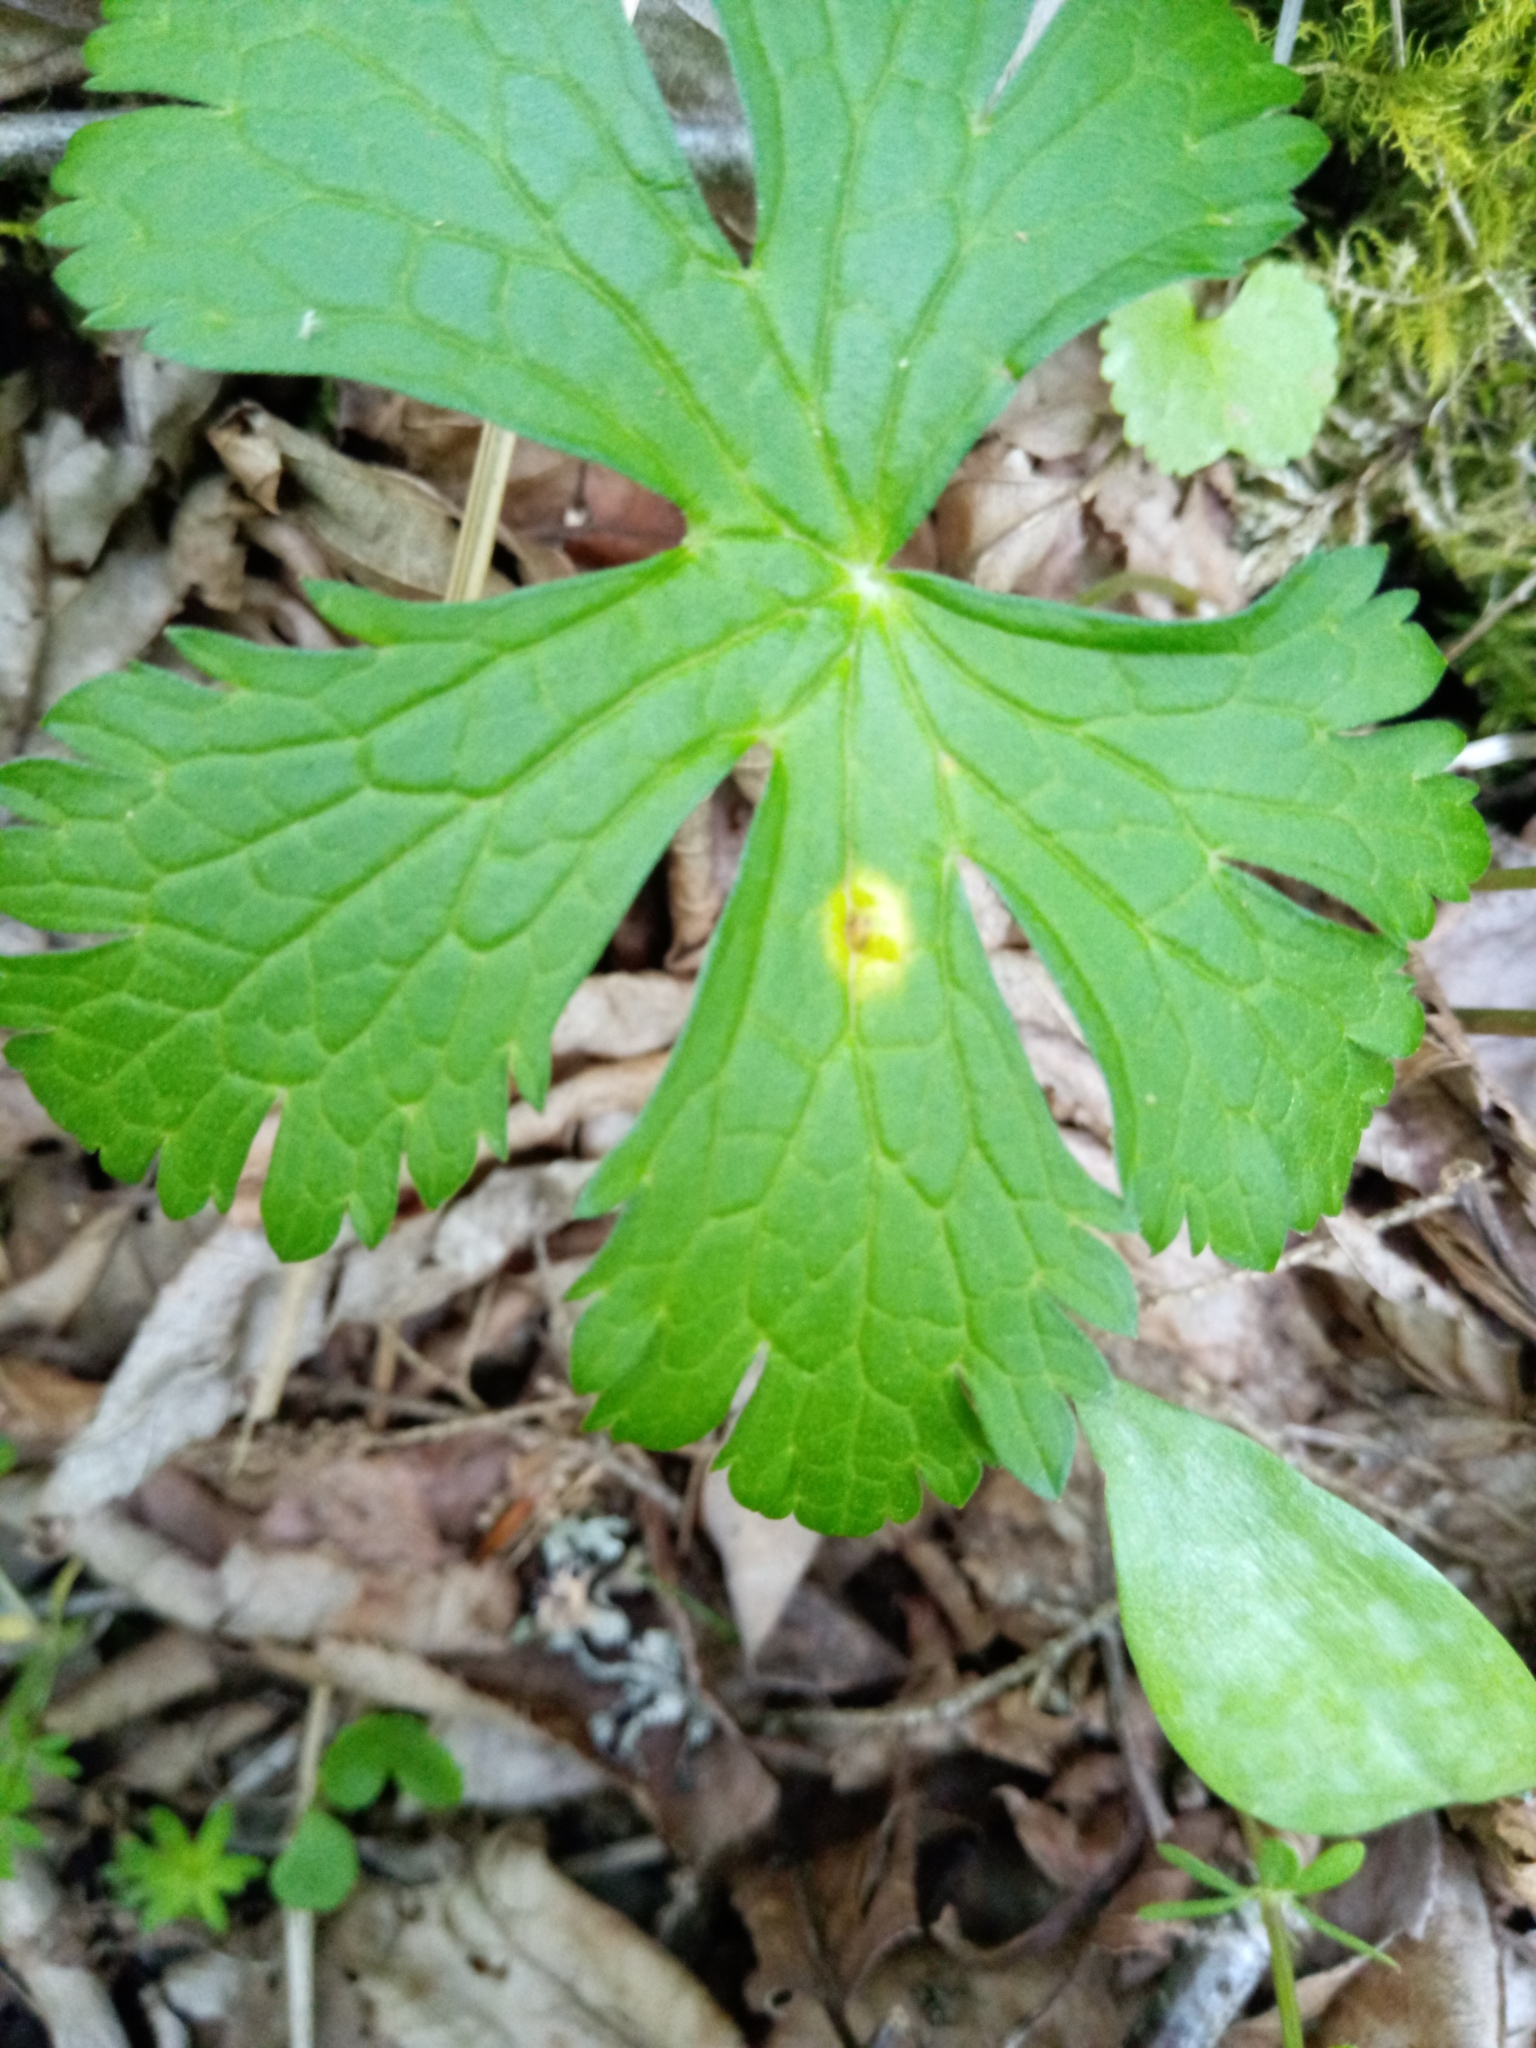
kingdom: Fungi
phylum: Basidiomycota
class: Pucciniomycetes
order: Pucciniales
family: Pucciniaceae
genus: Puccinia
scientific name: Puccinia polygoni-amphibii
